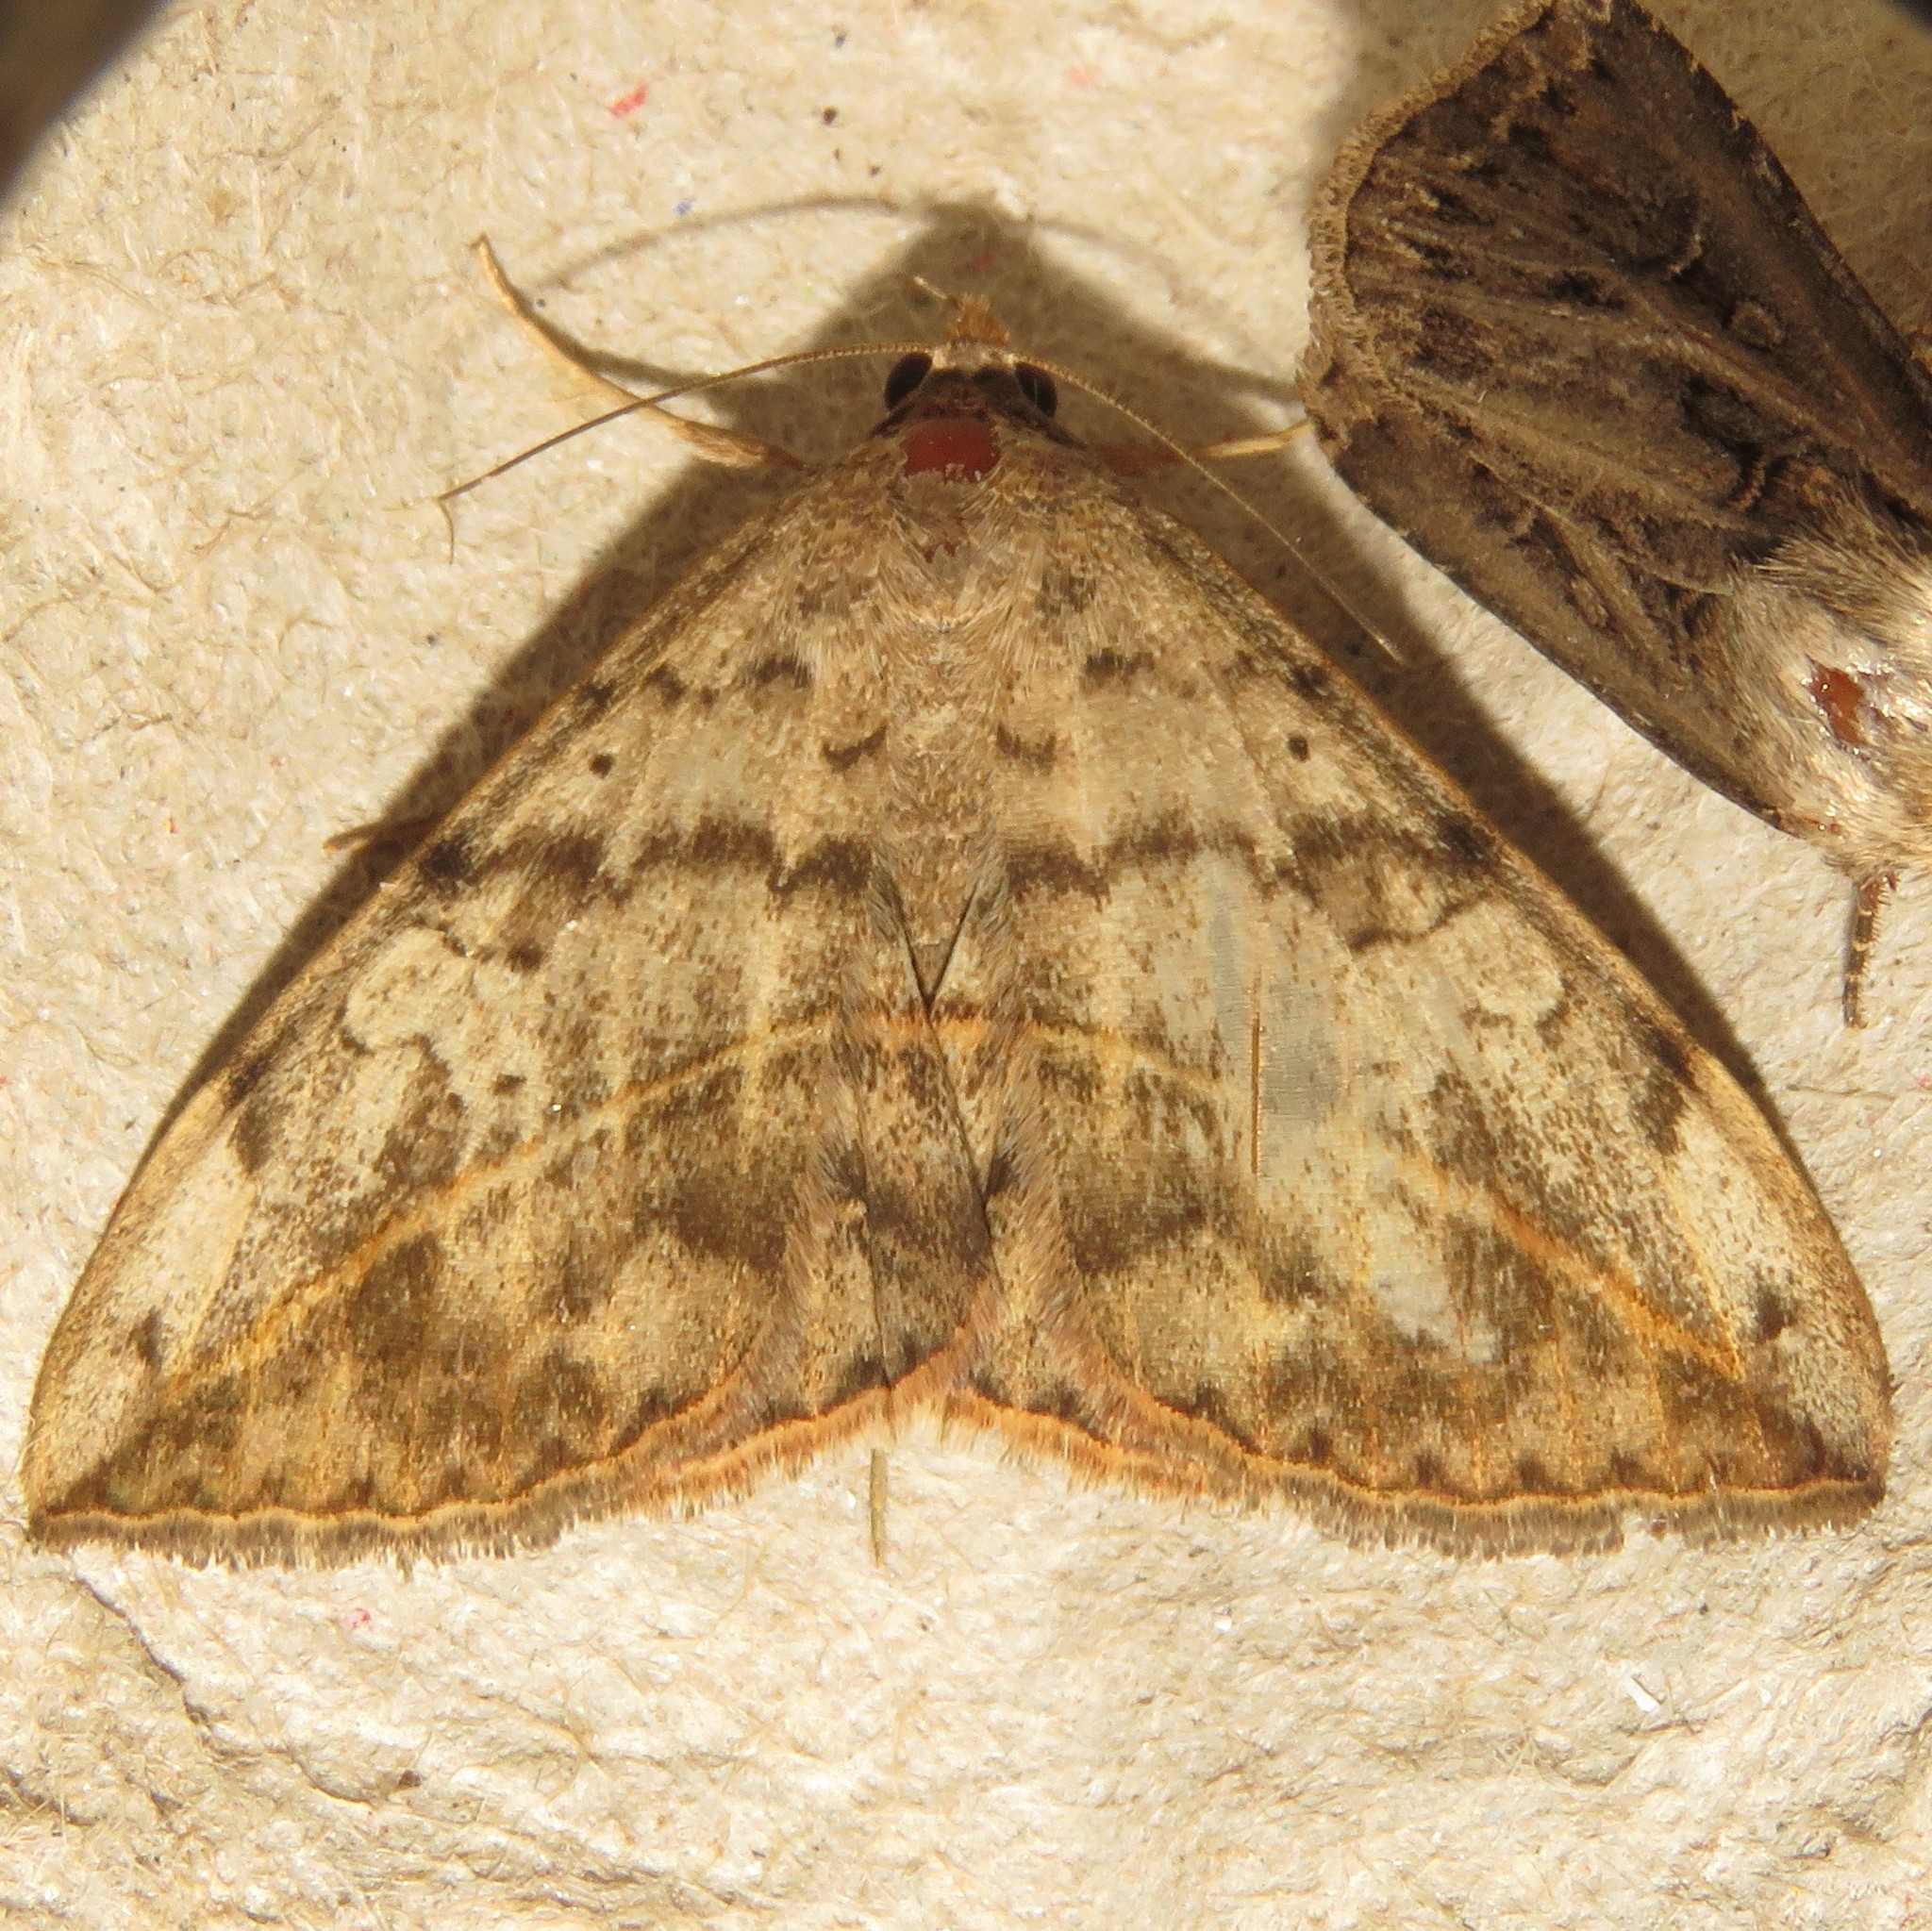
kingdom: Animalia
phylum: Arthropoda
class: Insecta
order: Lepidoptera
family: Erebidae
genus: Anticarsia
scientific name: Anticarsia gemmatalis
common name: Cutworm moth
